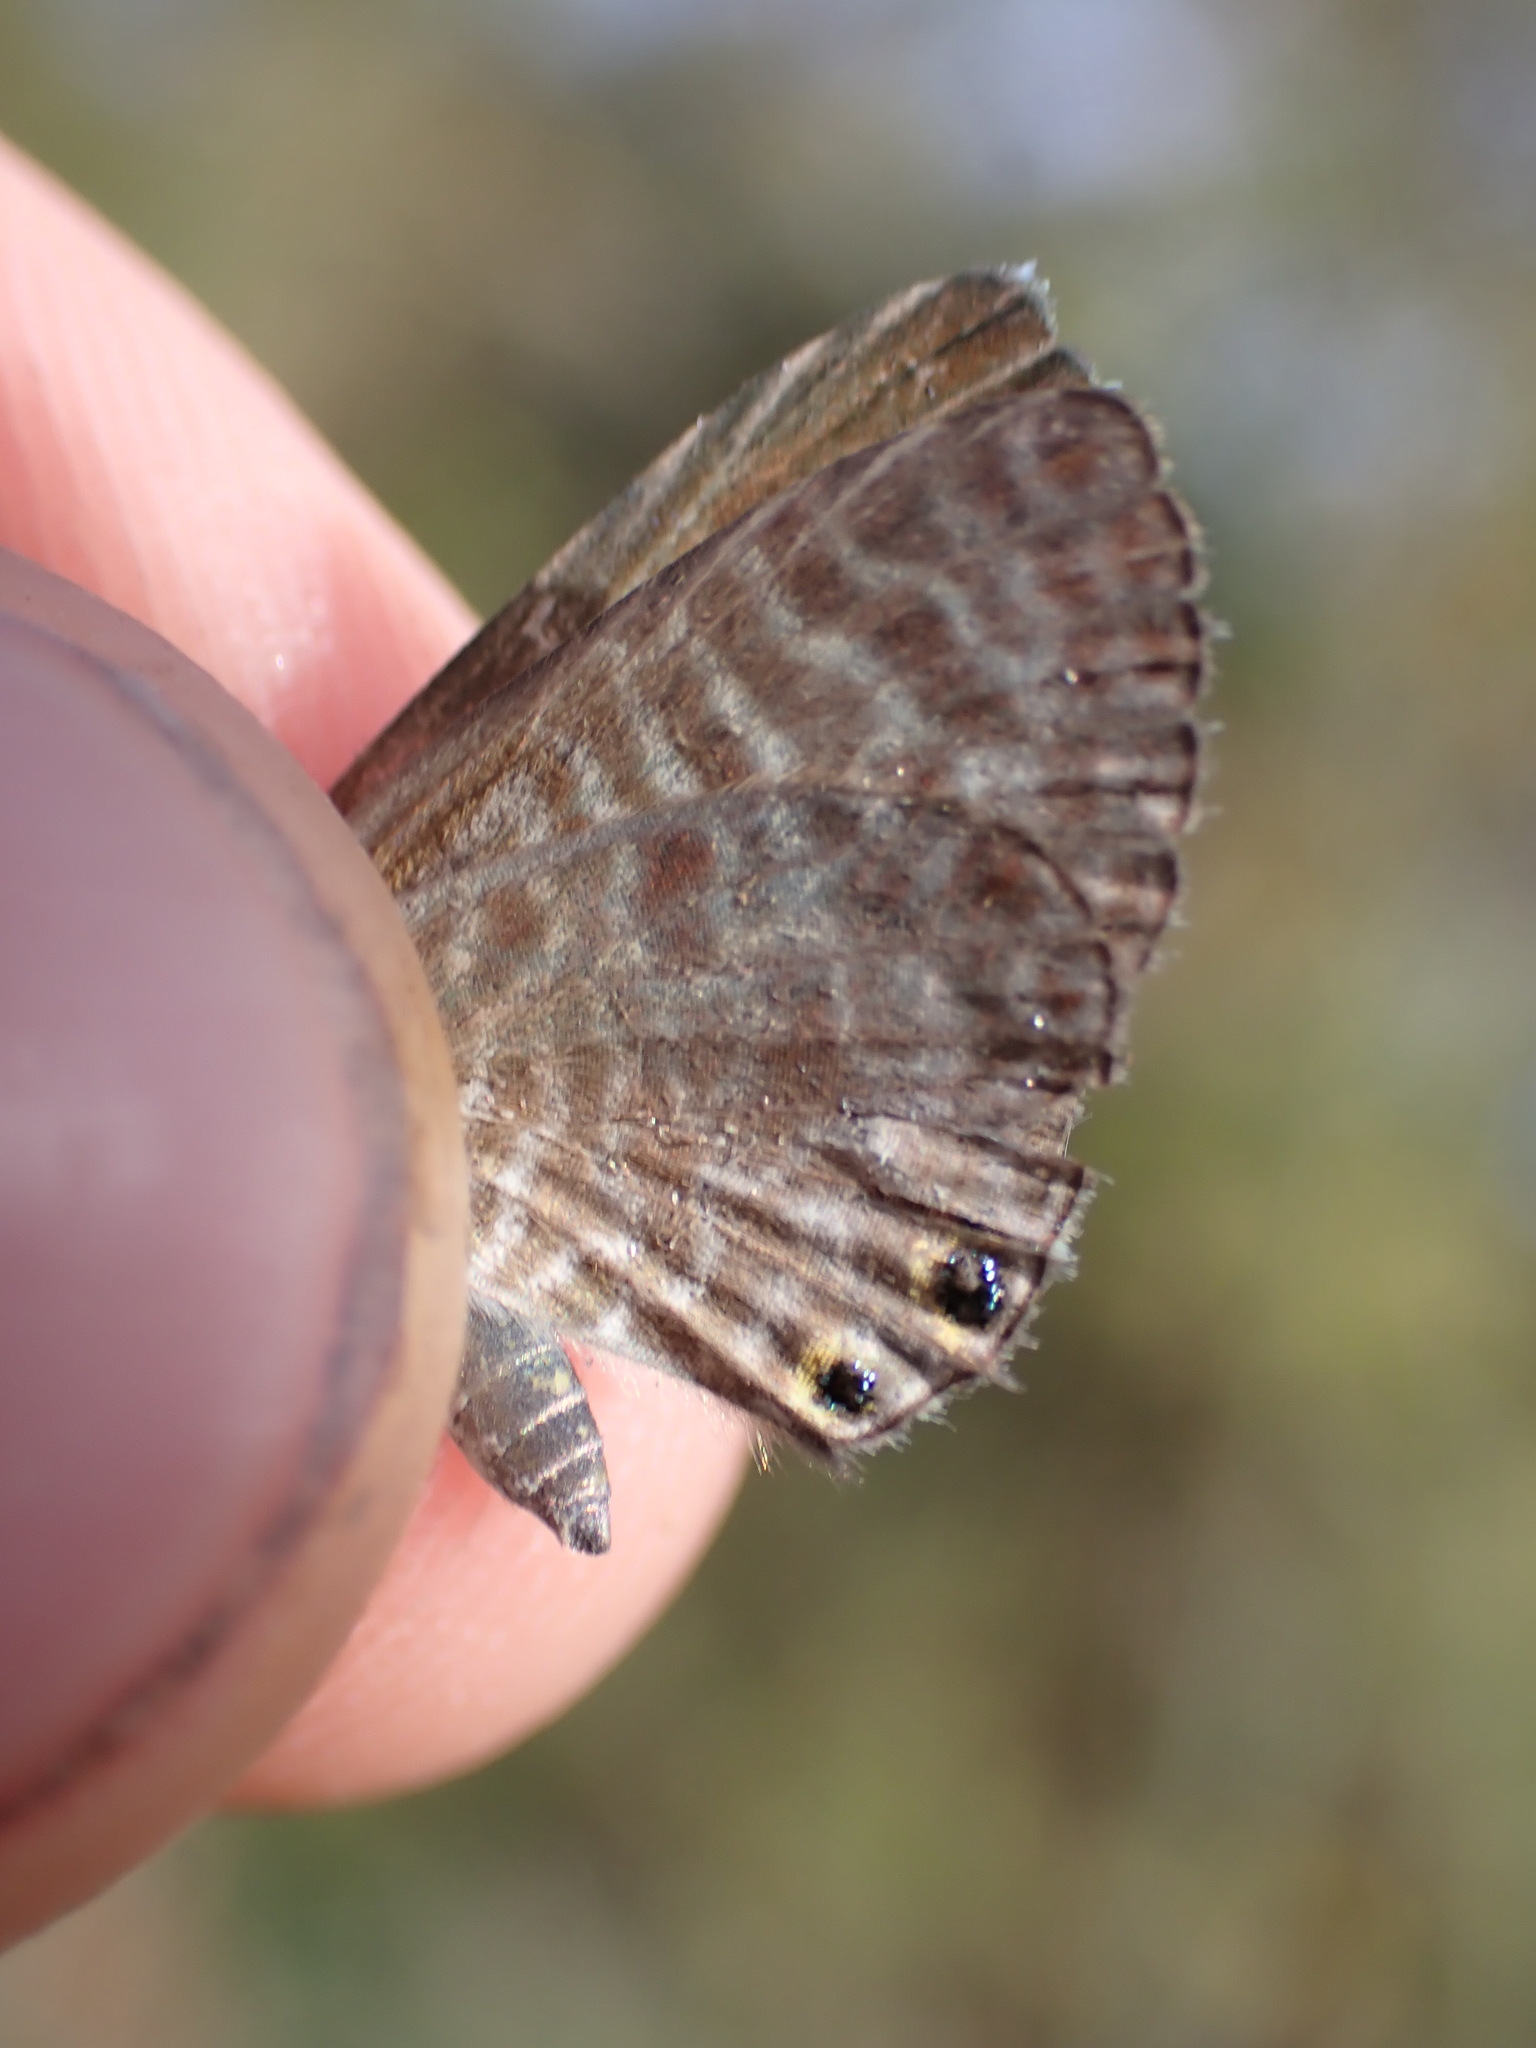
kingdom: Animalia
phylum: Arthropoda
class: Insecta
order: Lepidoptera
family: Lycaenidae
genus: Leptotes
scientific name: Leptotes pirithous
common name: Lang's short-tailed blue
